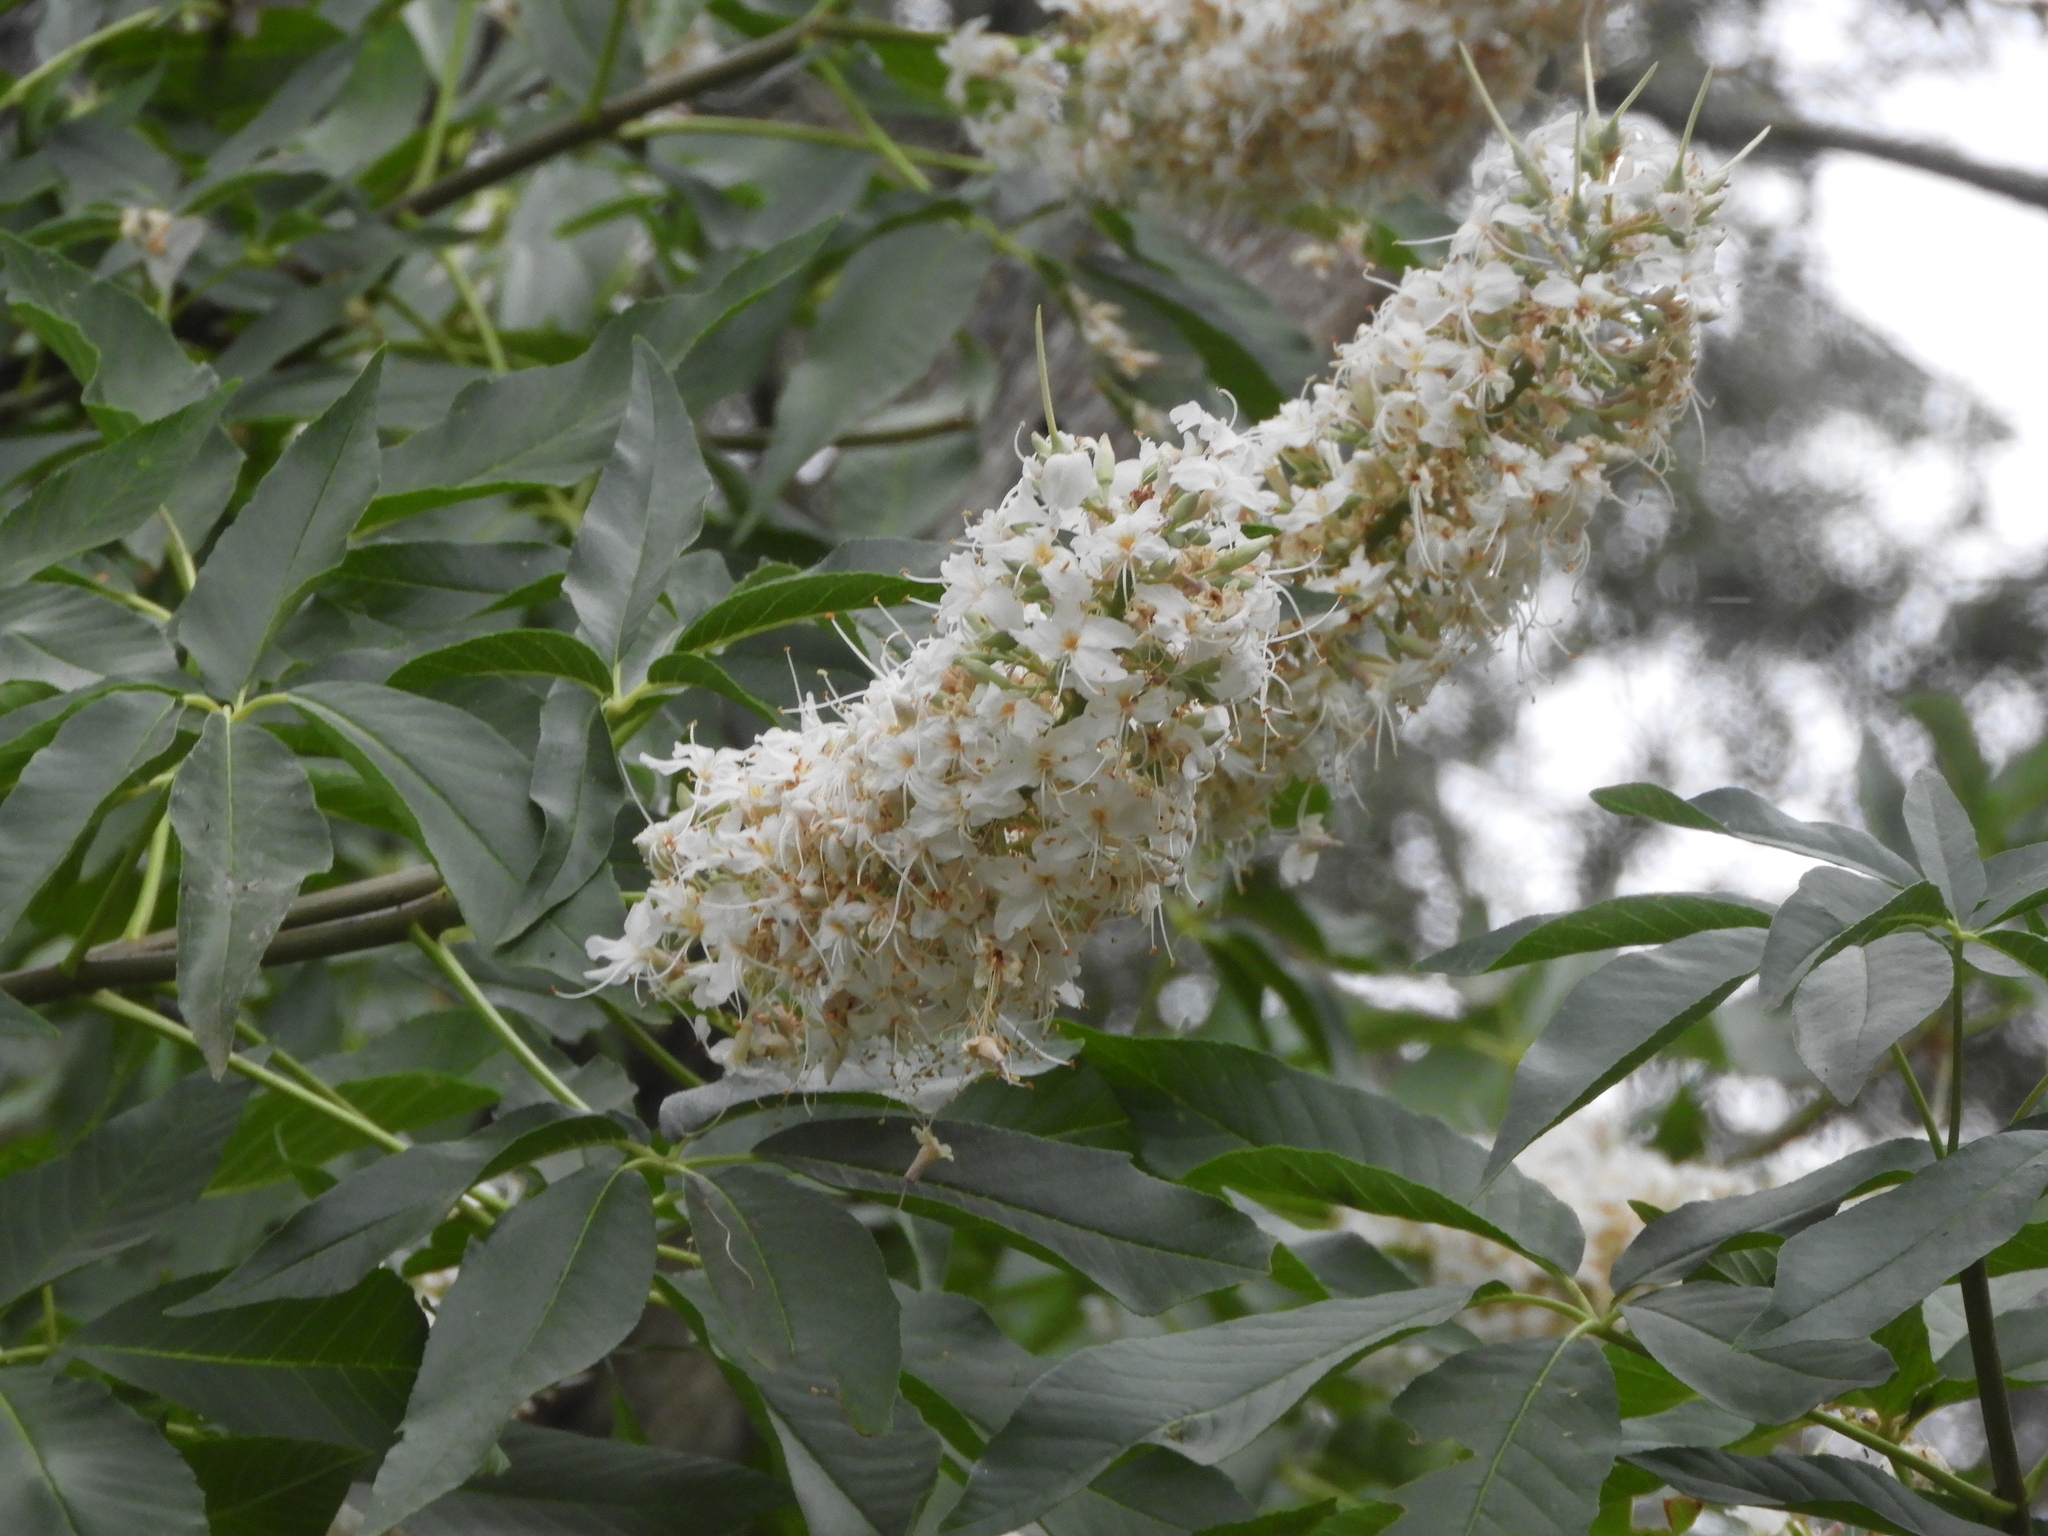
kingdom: Plantae
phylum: Tracheophyta
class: Magnoliopsida
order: Sapindales
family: Sapindaceae
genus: Aesculus
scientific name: Aesculus californica
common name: California buckeye
